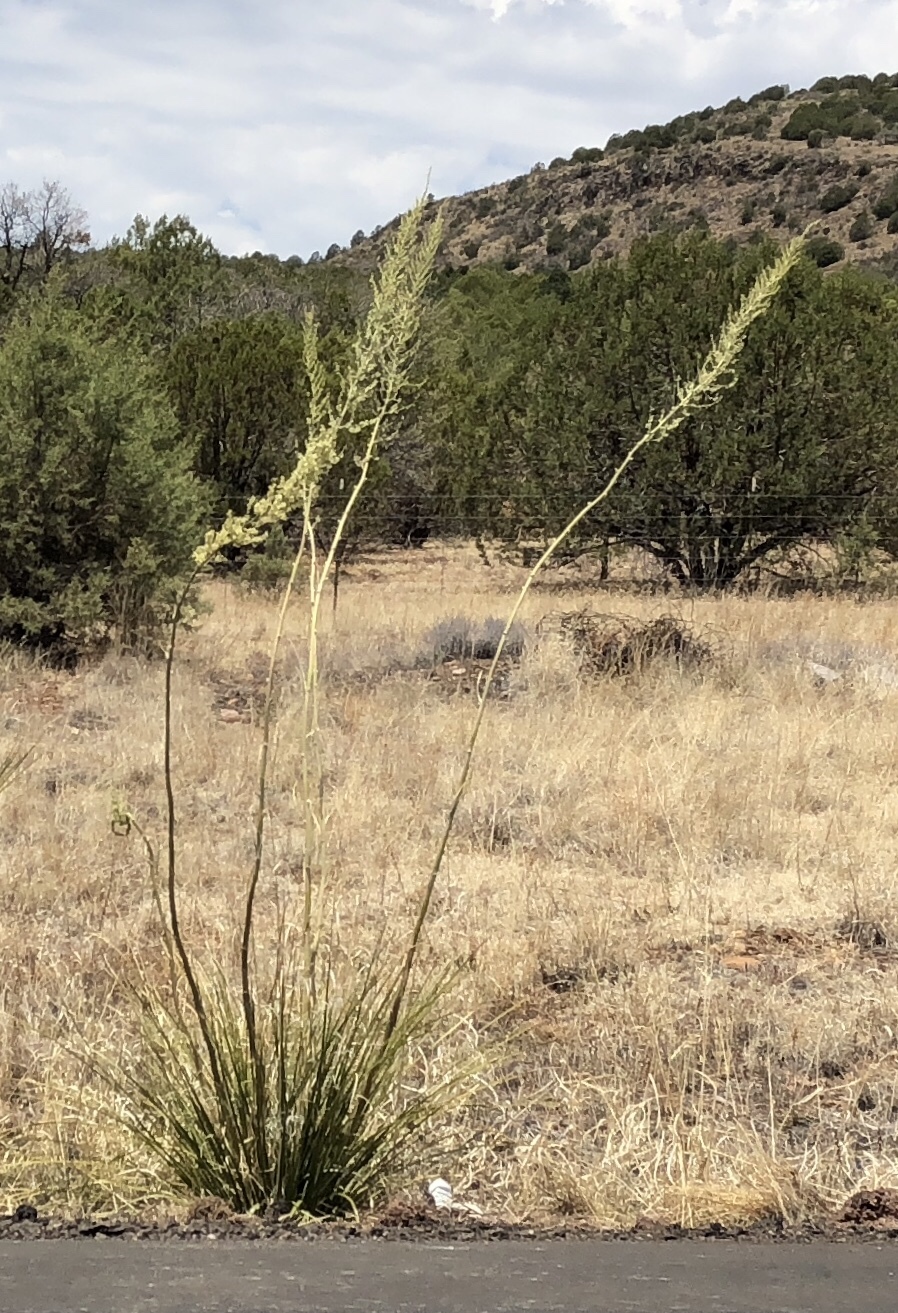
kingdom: Plantae
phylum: Tracheophyta
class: Liliopsida
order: Asparagales
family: Asparagaceae
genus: Nolina
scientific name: Nolina microcarpa
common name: Bear-grass
